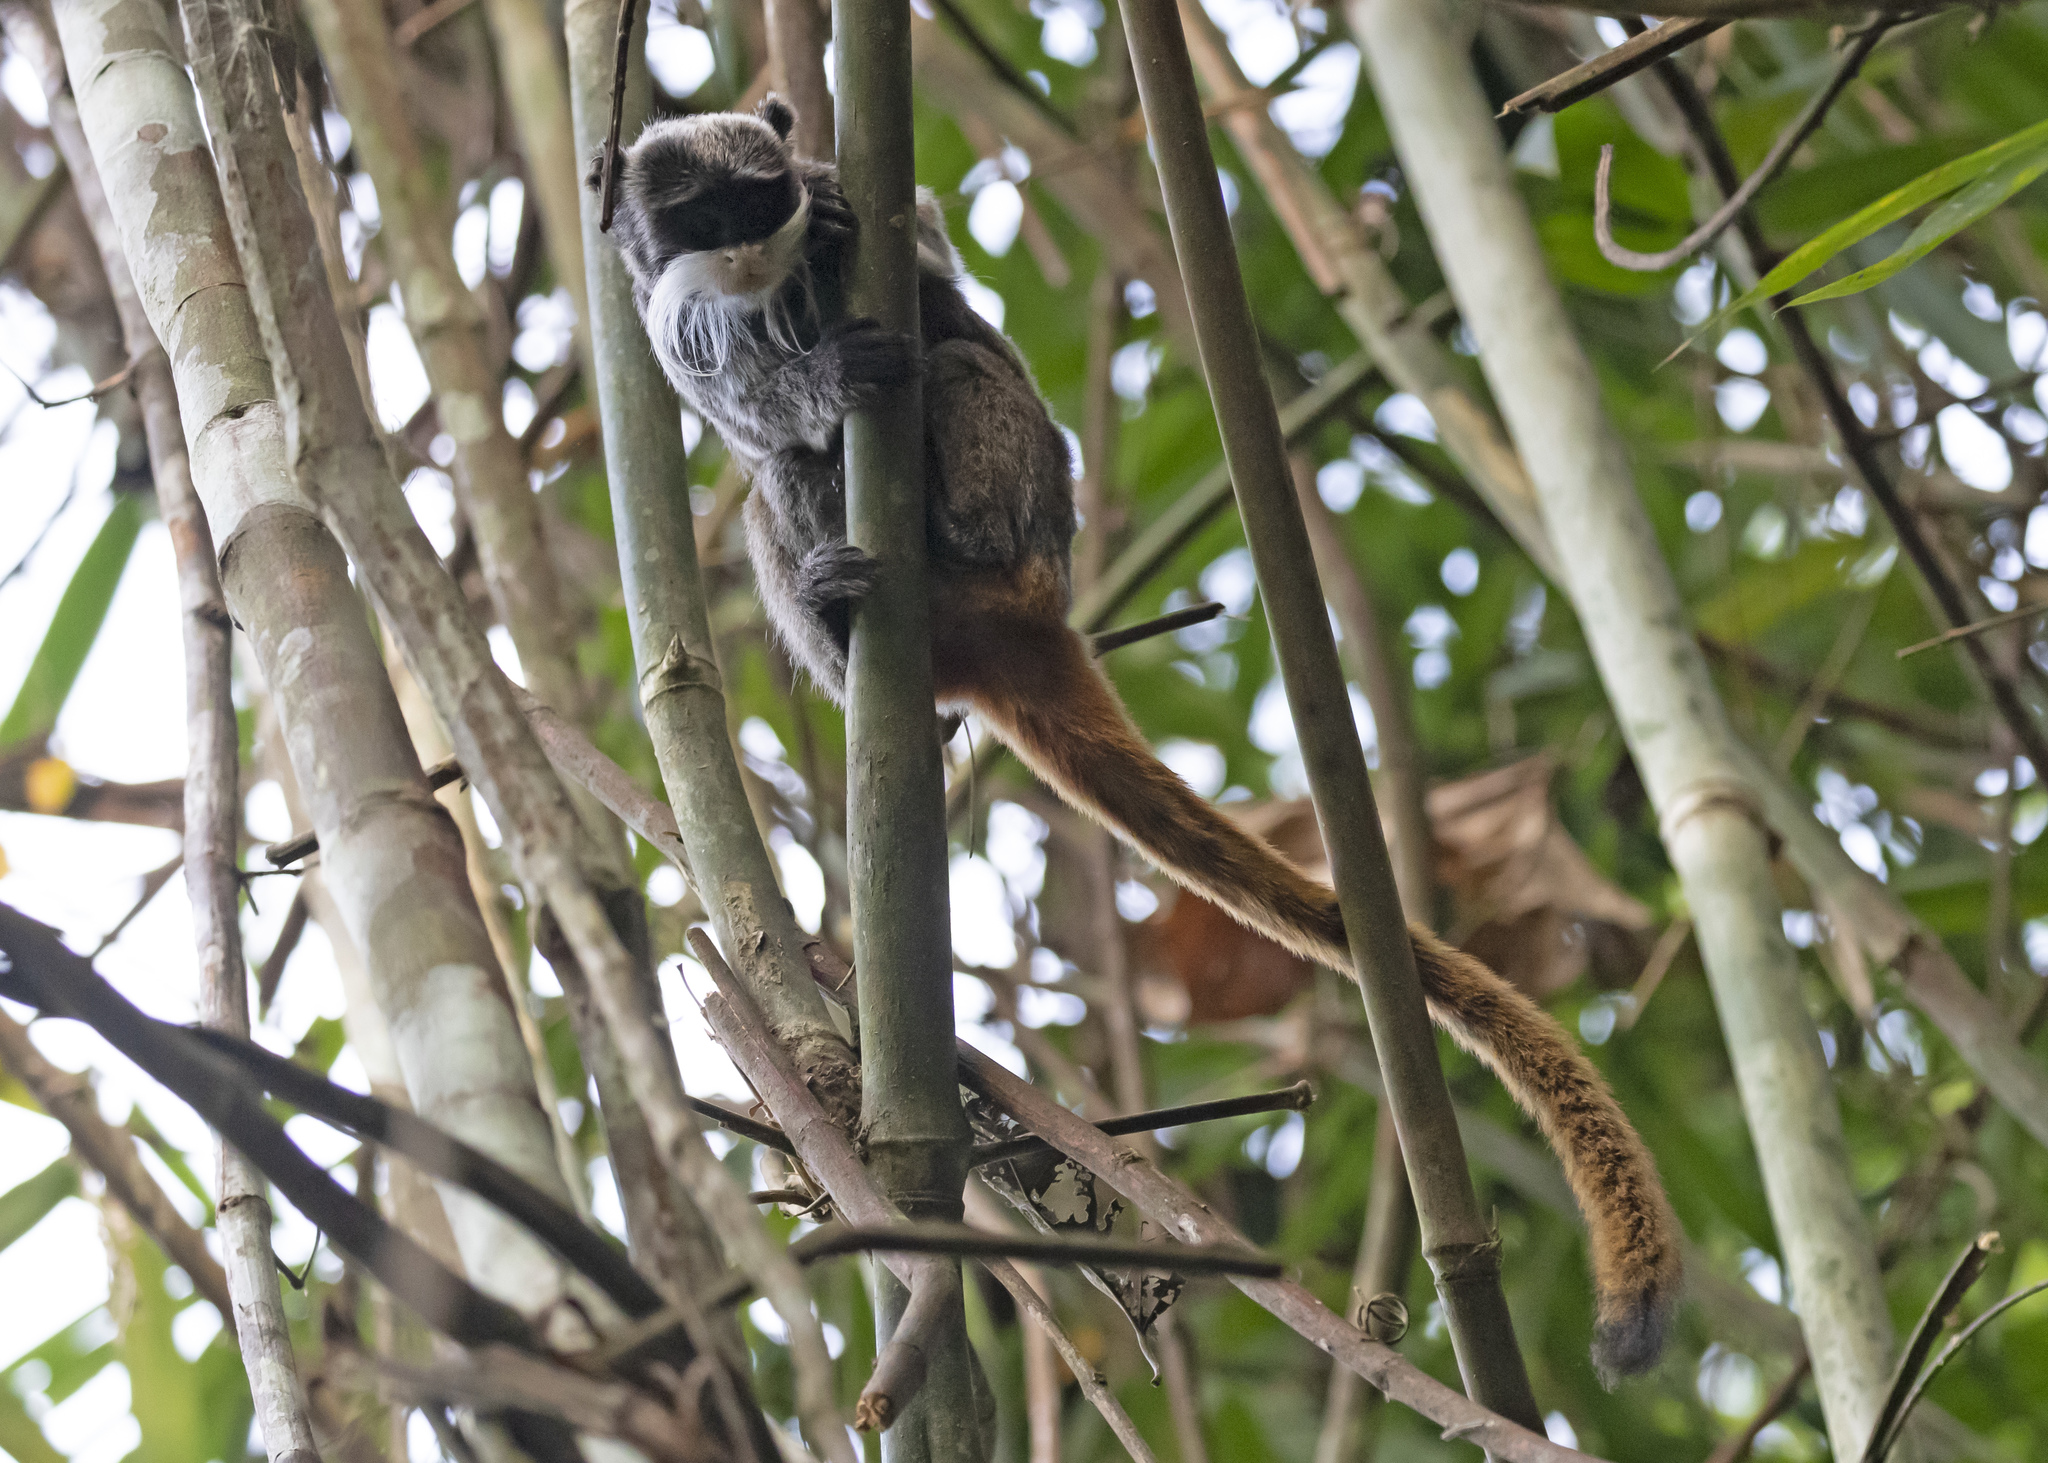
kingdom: Animalia
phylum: Chordata
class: Mammalia
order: Primates
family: Callitrichidae
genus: Saguinus
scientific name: Saguinus imperator
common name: Emperor tamarin
